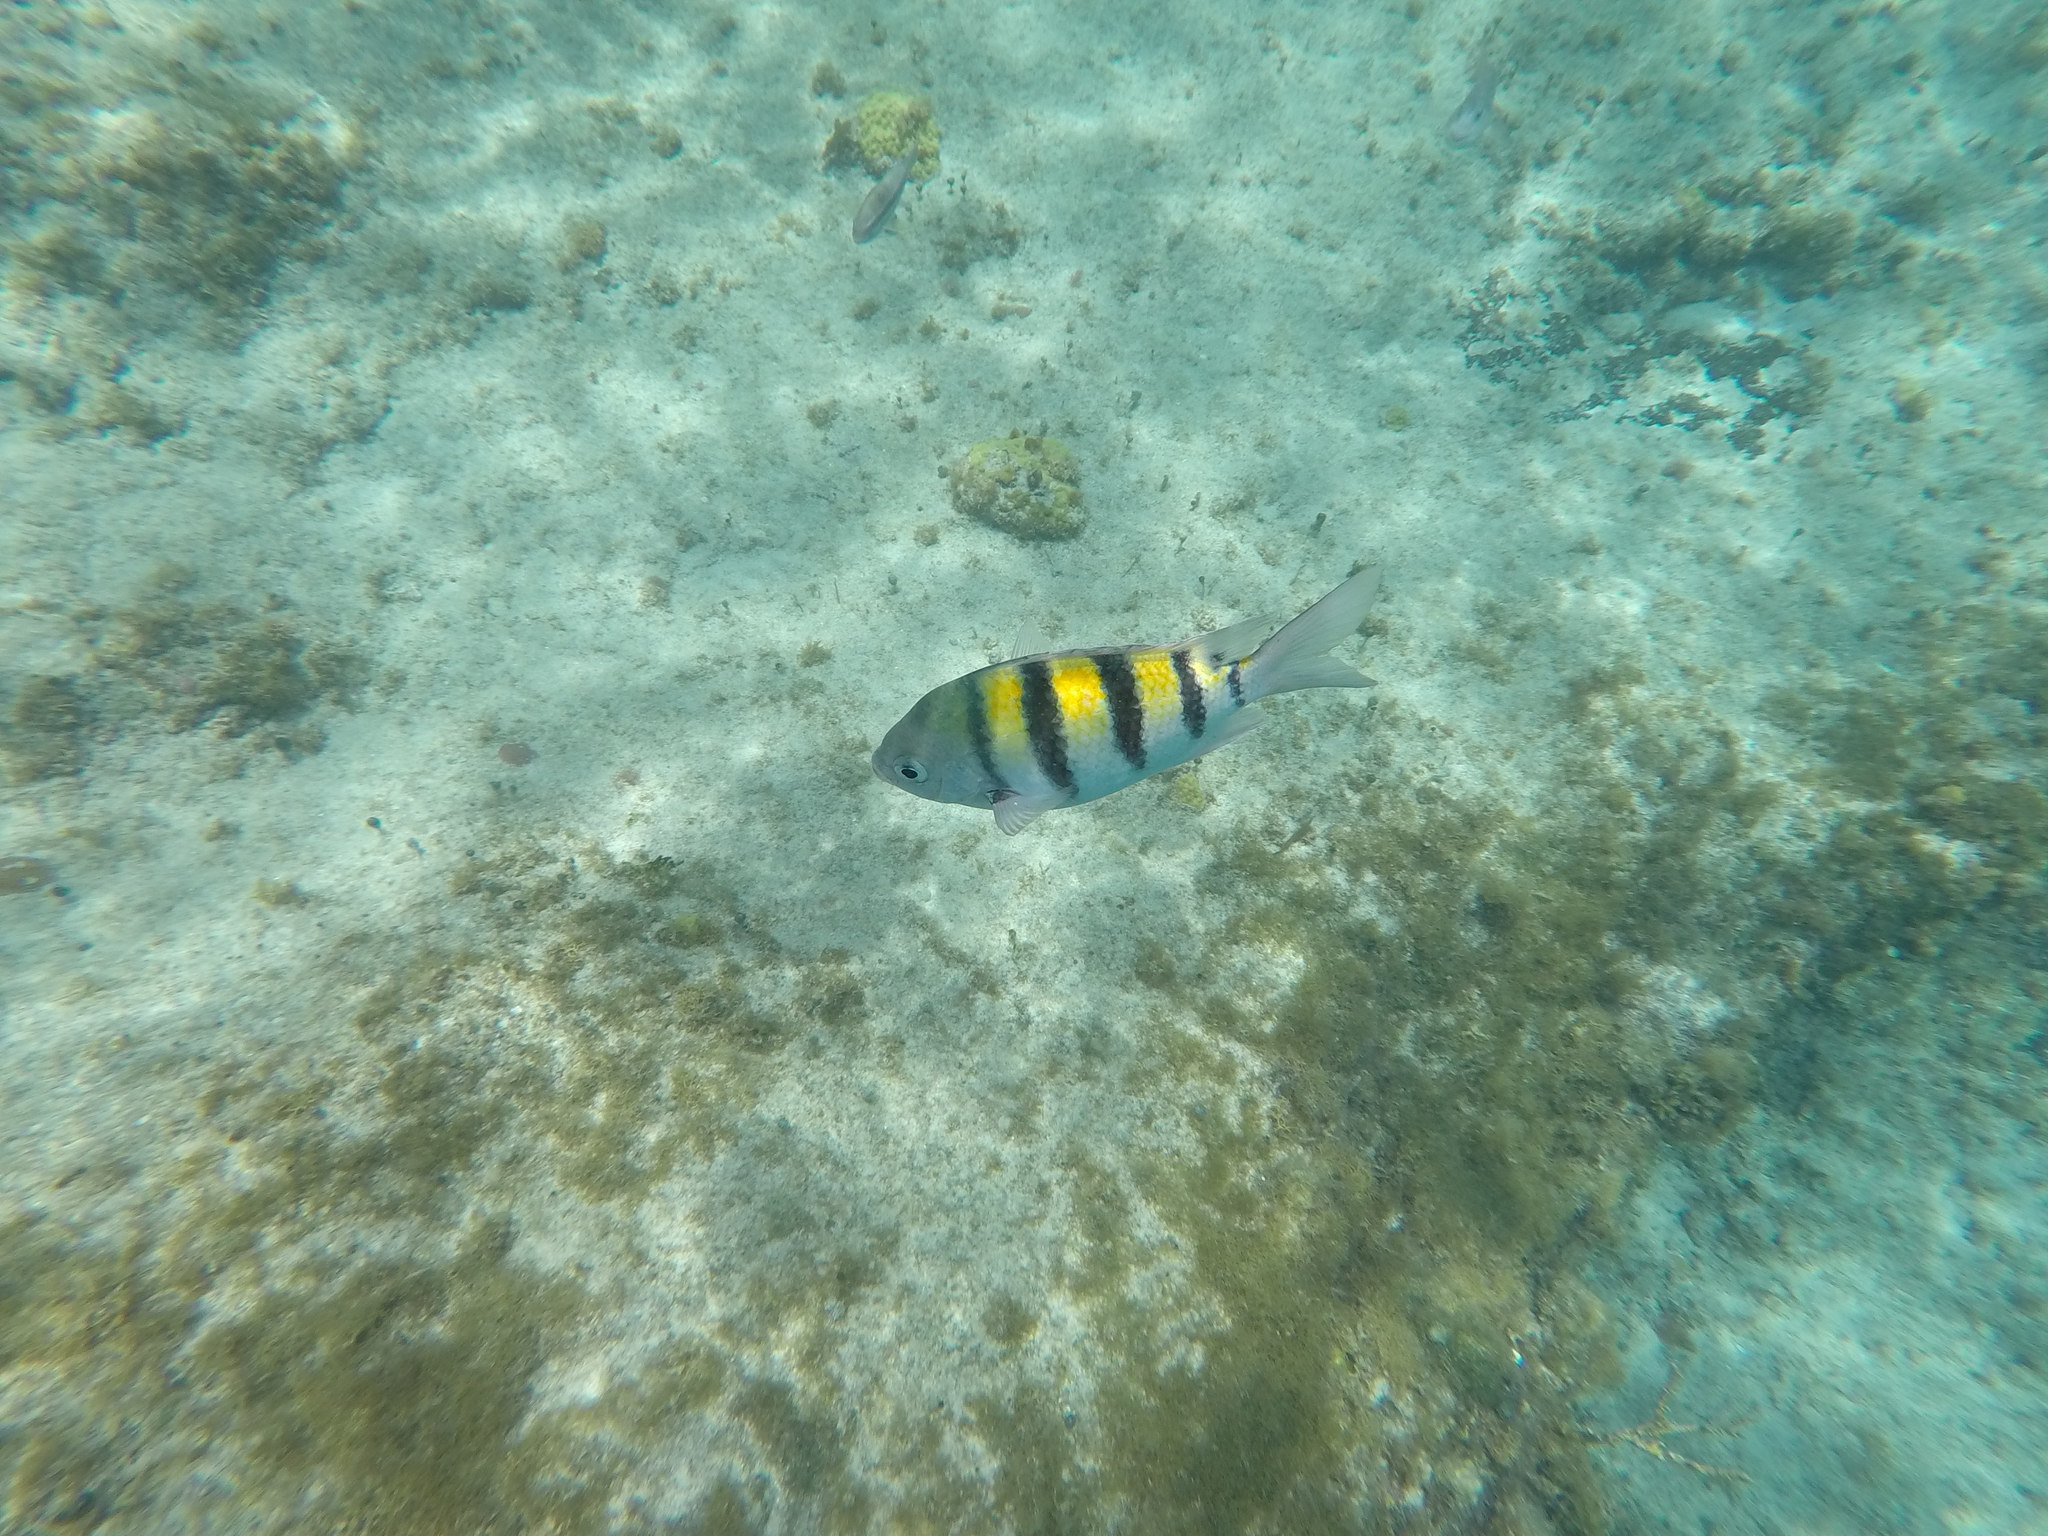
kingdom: Animalia
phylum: Chordata
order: Perciformes
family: Pomacentridae
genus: Abudefduf
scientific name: Abudefduf saxatilis
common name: Sergeant major
